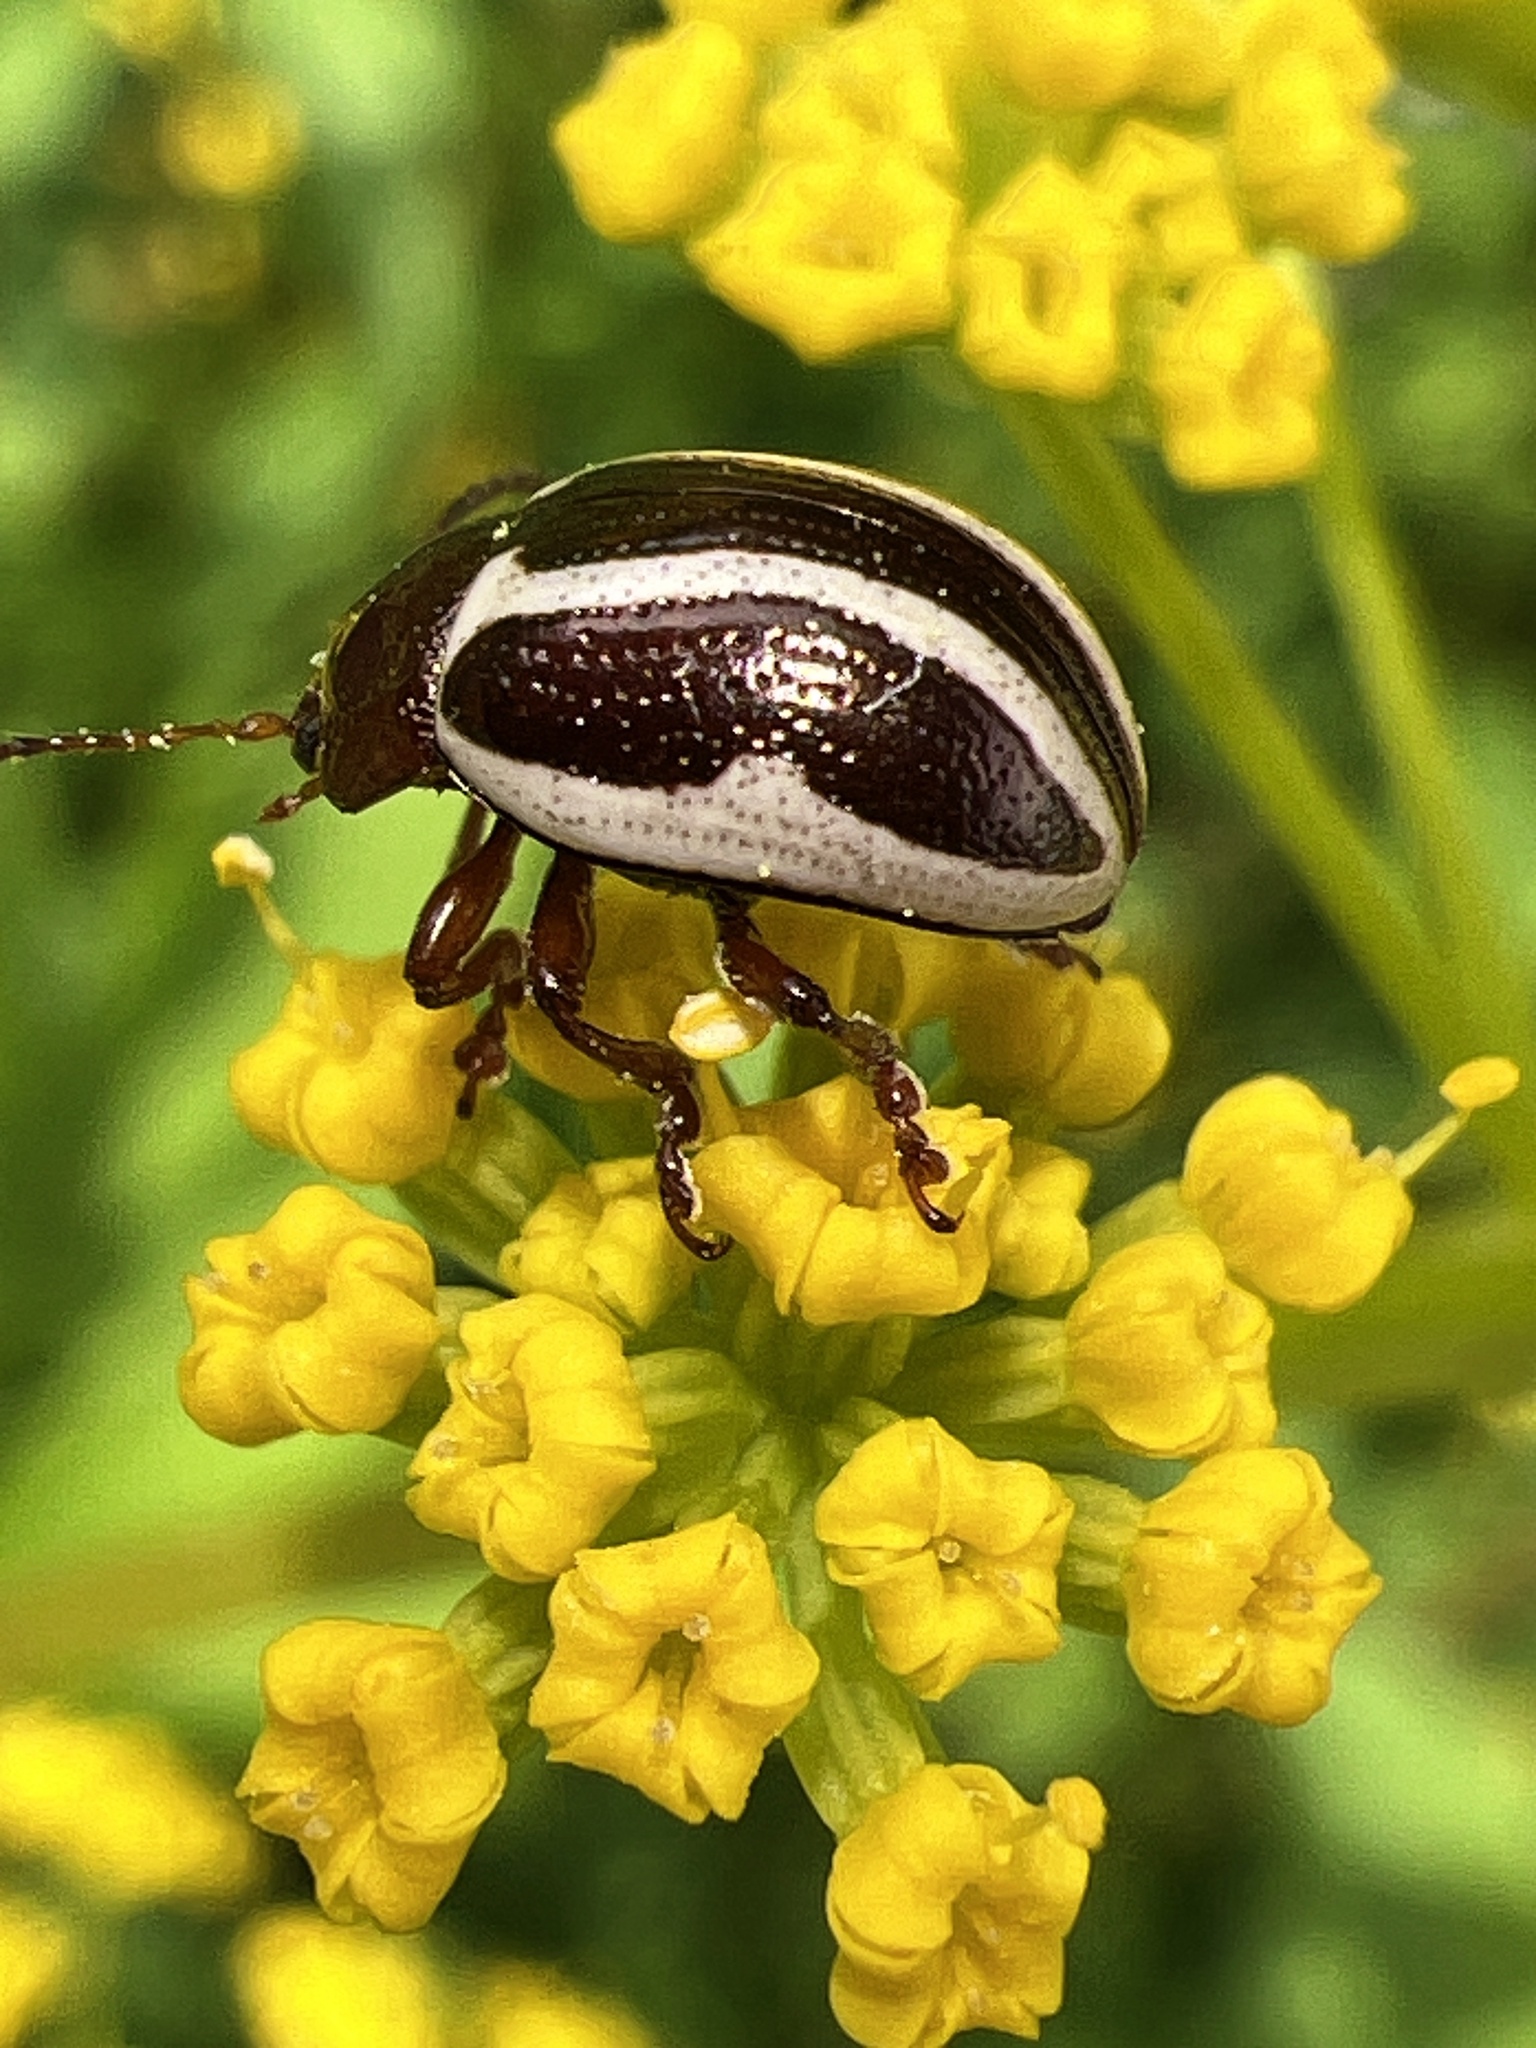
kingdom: Animalia
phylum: Arthropoda
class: Insecta
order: Coleoptera
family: Chrysomelidae
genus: Calligrapha
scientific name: Calligrapha bidenticola
